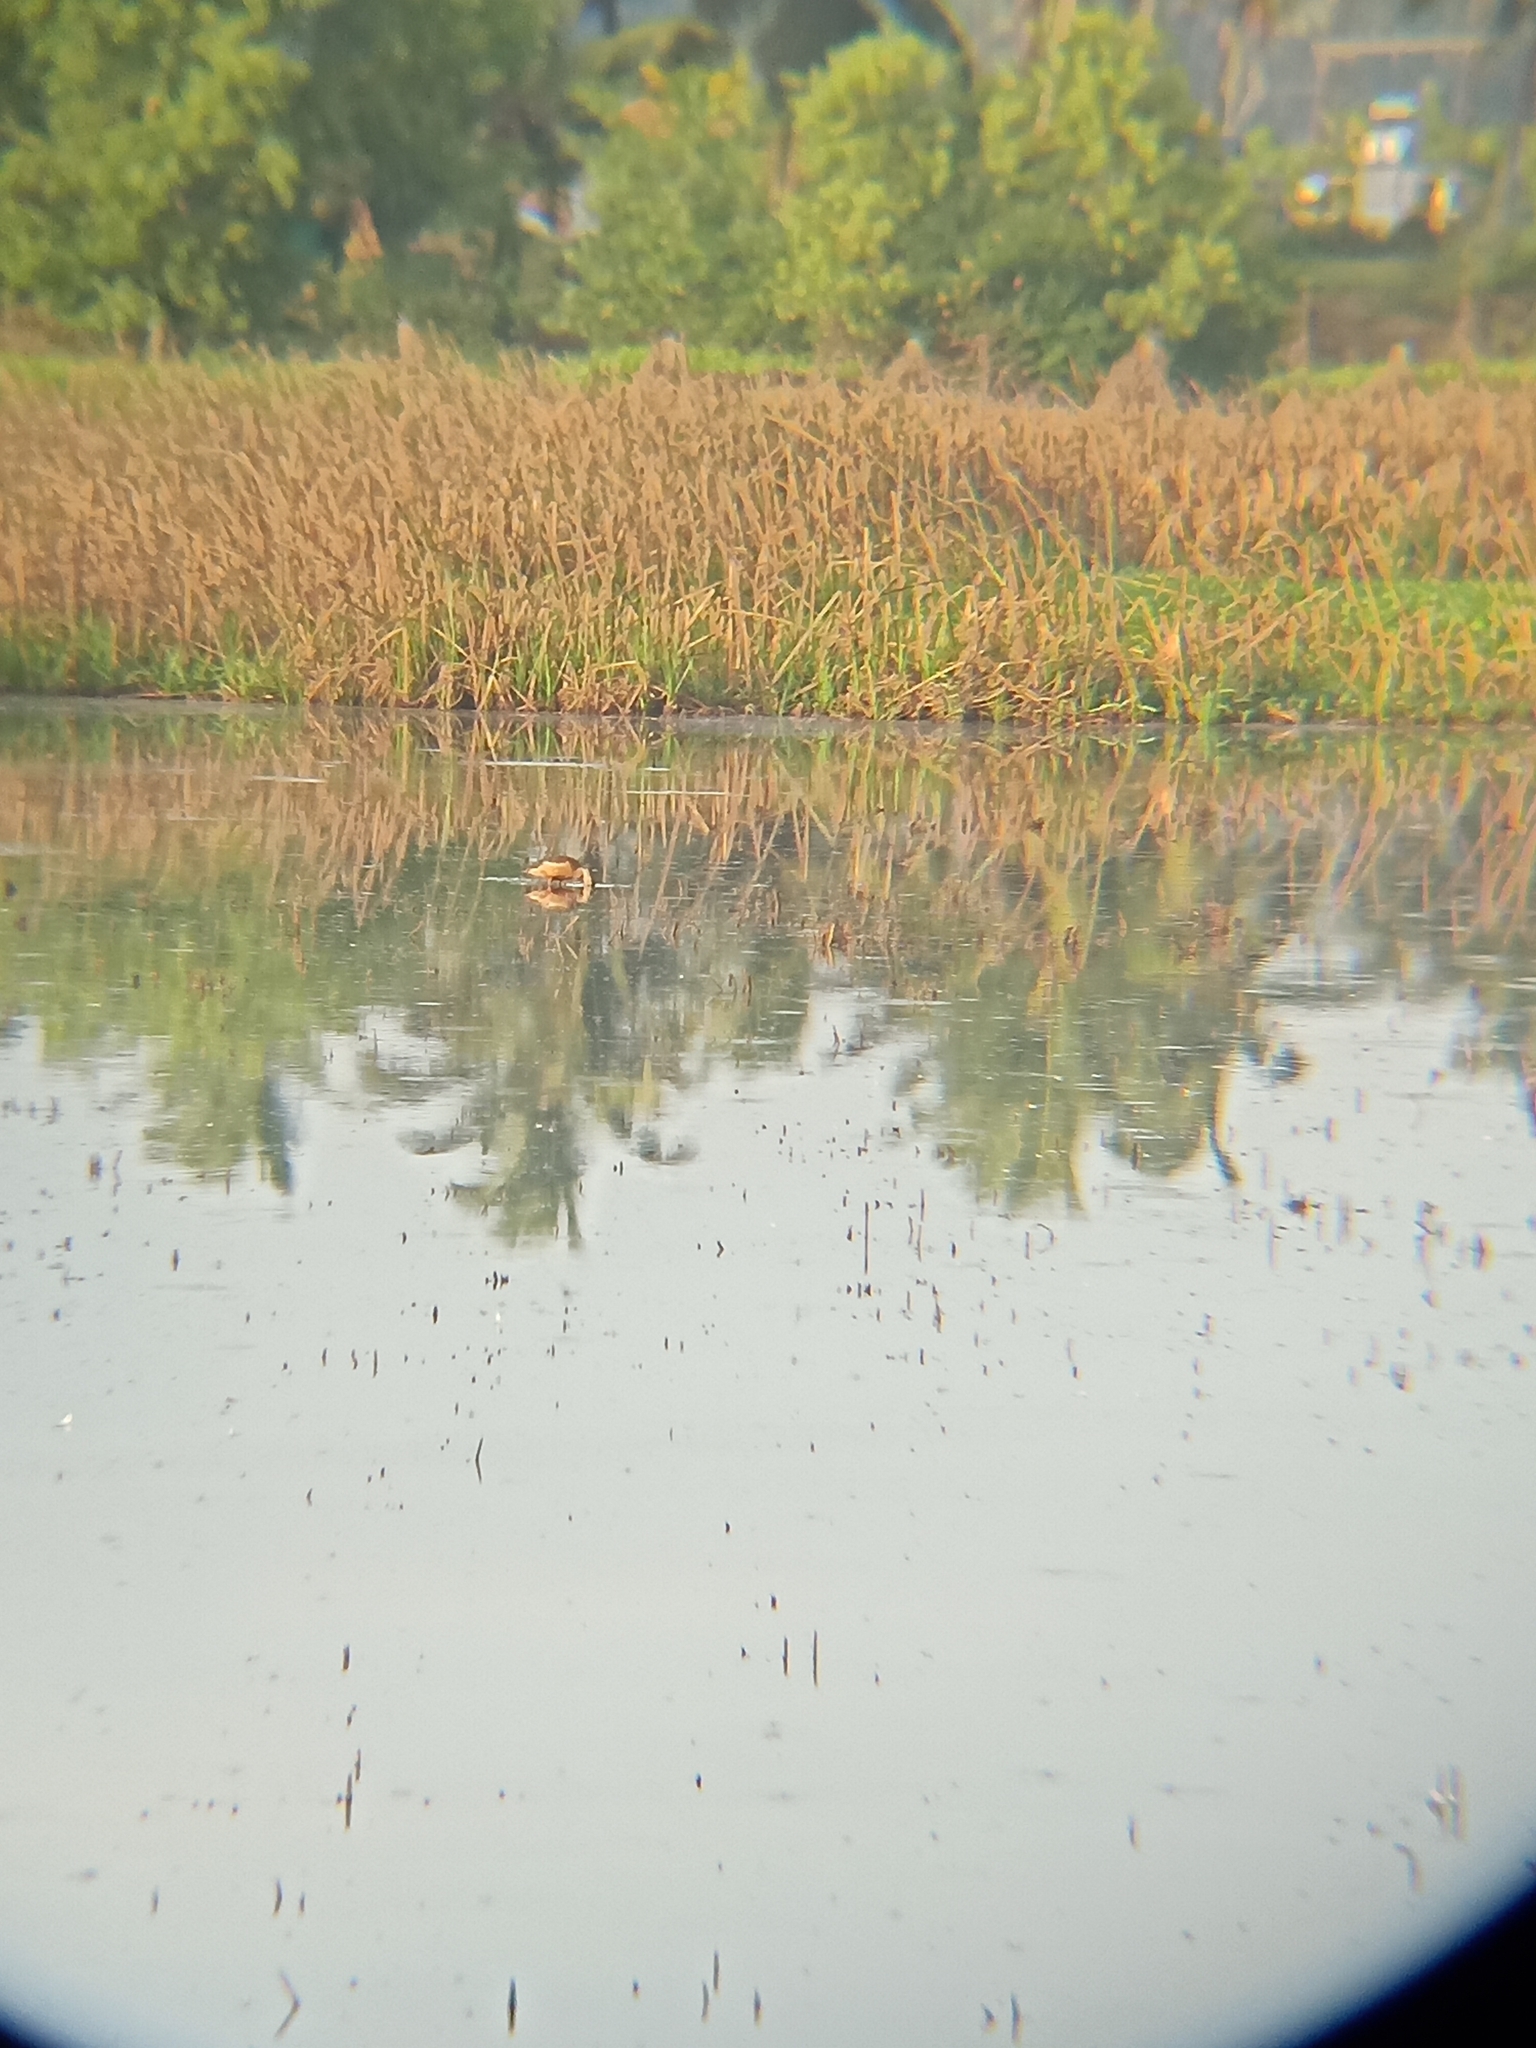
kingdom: Animalia
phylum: Chordata
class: Aves
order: Anseriformes
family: Anatidae
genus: Dendrocygna
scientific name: Dendrocygna javanica
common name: Lesser whistling-duck
